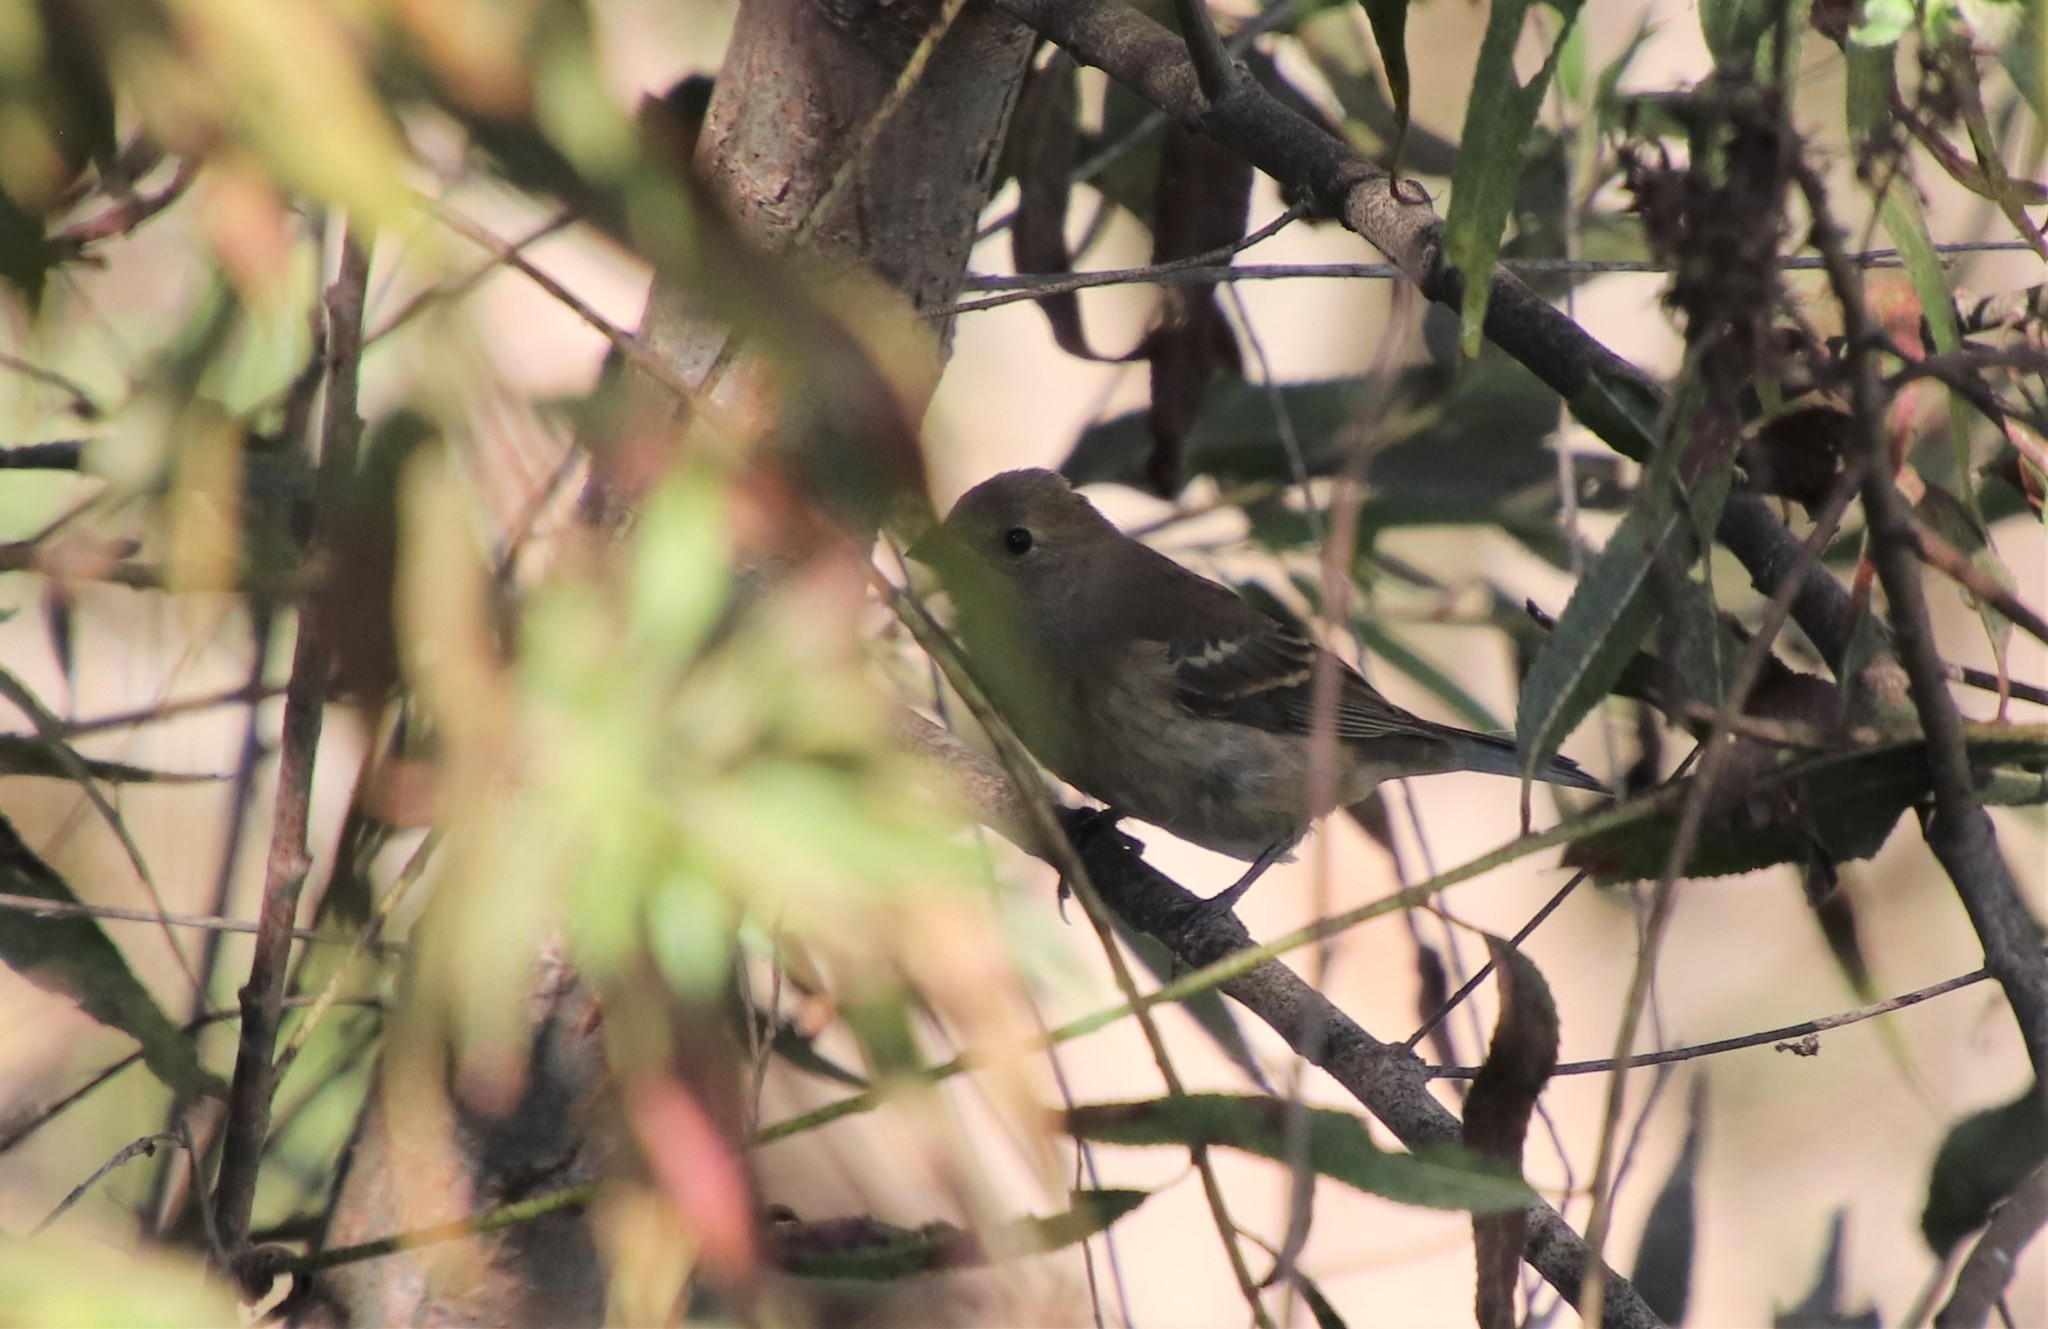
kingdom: Animalia
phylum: Chordata
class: Aves
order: Passeriformes
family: Cardinalidae
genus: Passerina
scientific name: Passerina amoena
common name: Lazuli bunting
